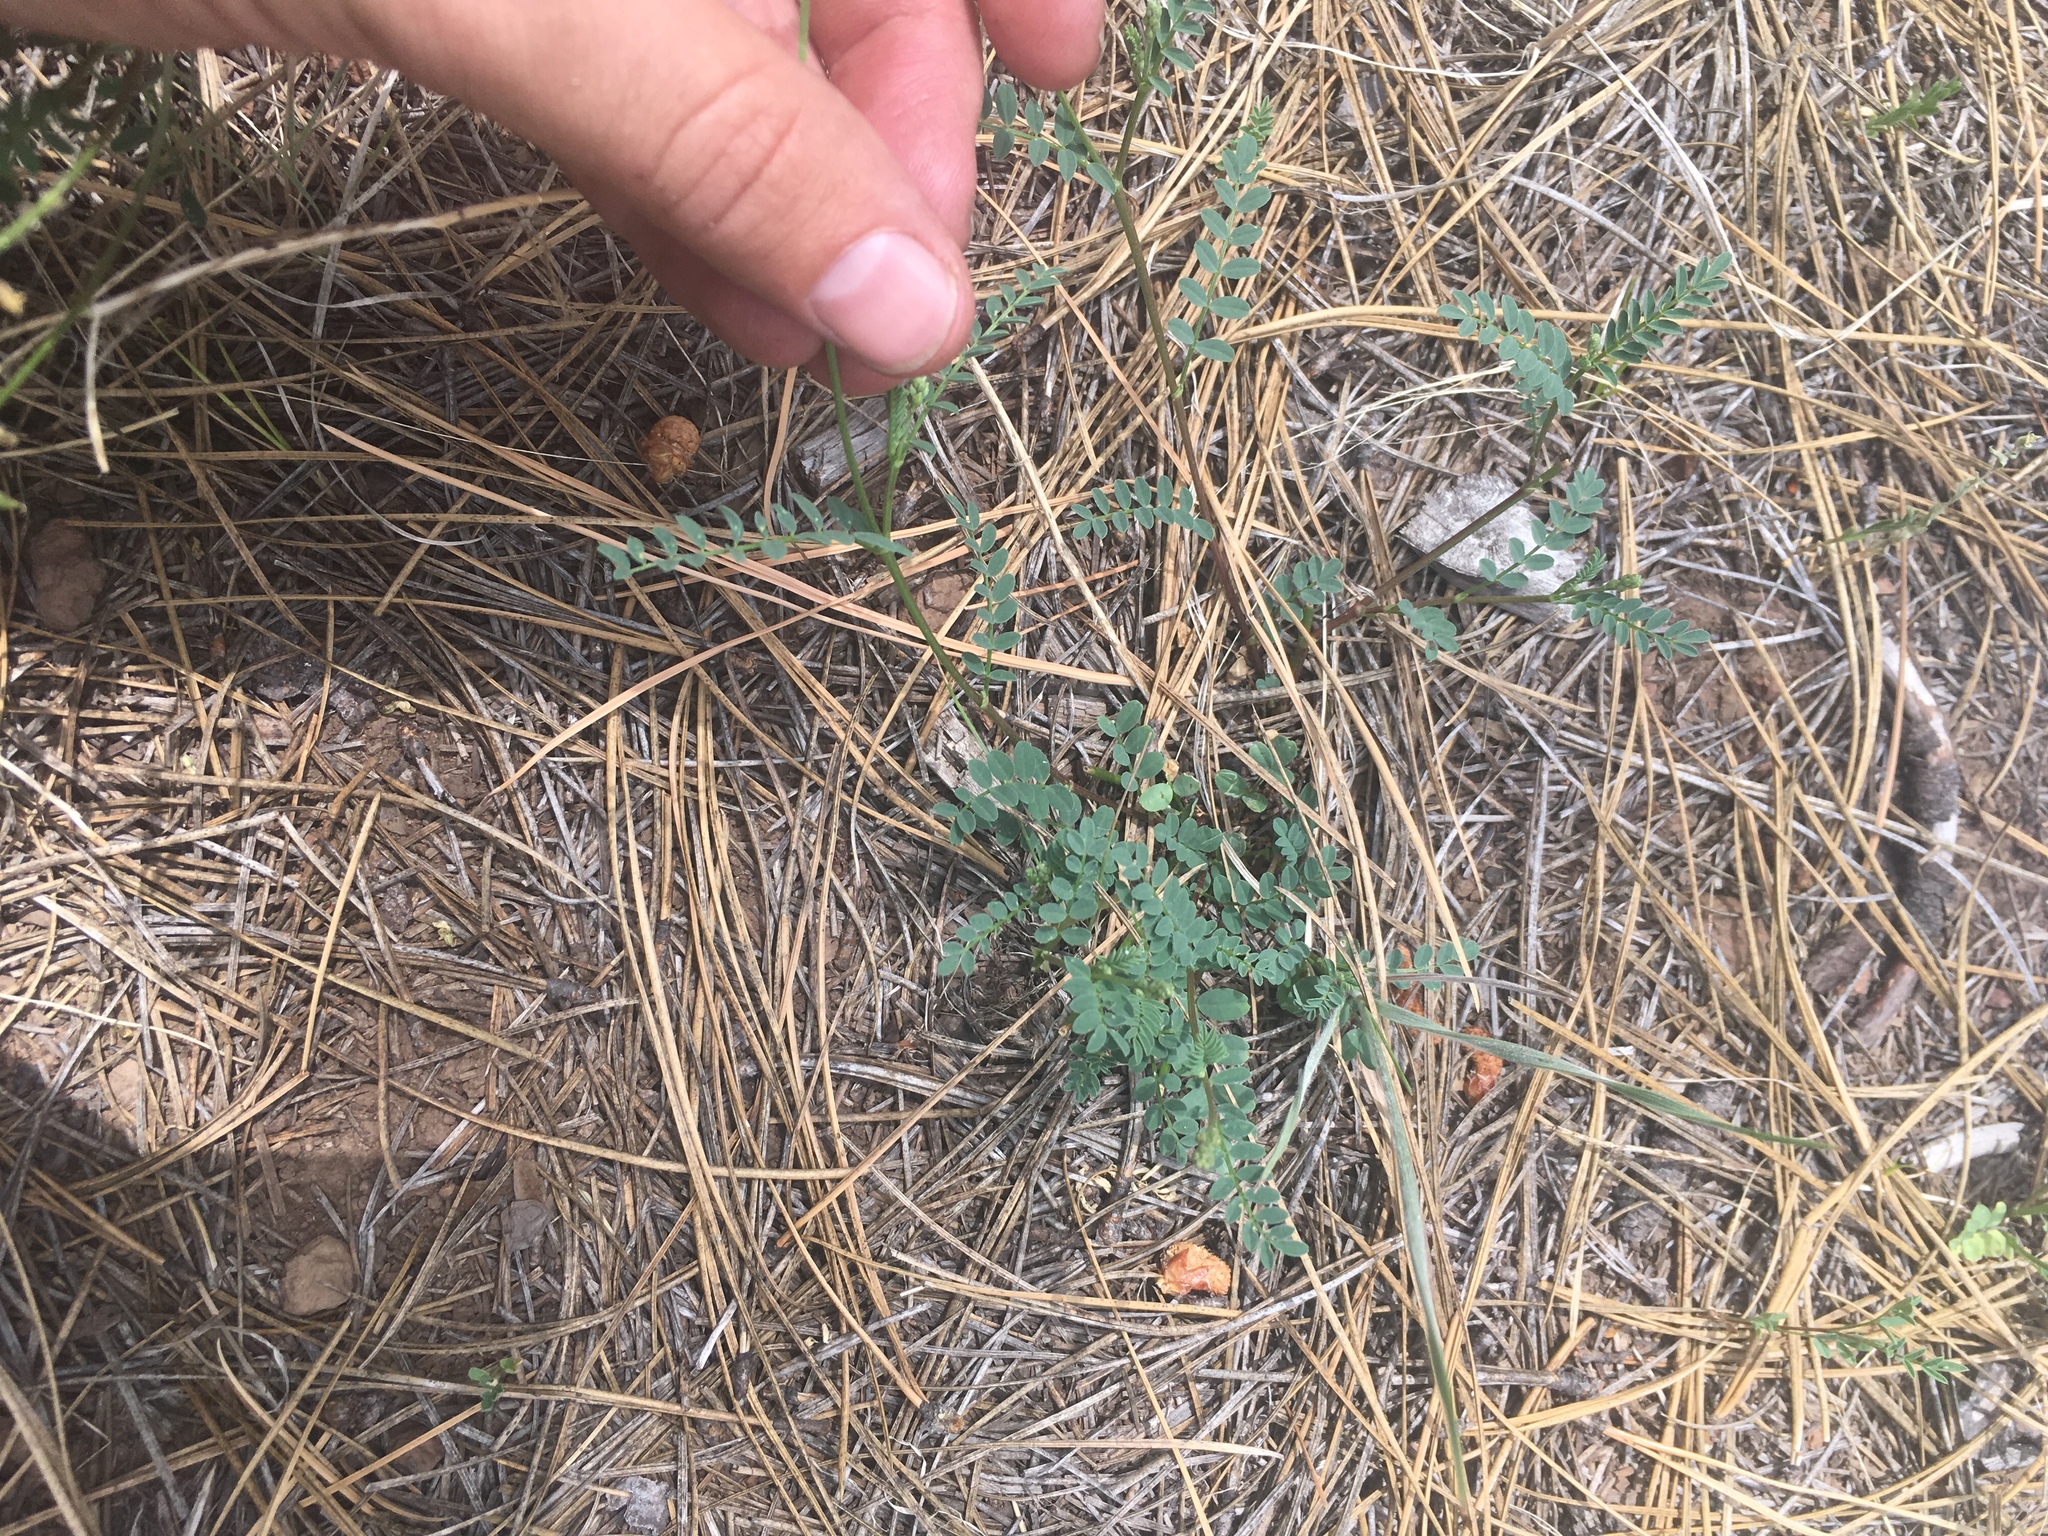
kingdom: Plantae
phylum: Tracheophyta
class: Magnoliopsida
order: Fabales
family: Fabaceae
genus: Astragalus
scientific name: Astragalus rusbyi
